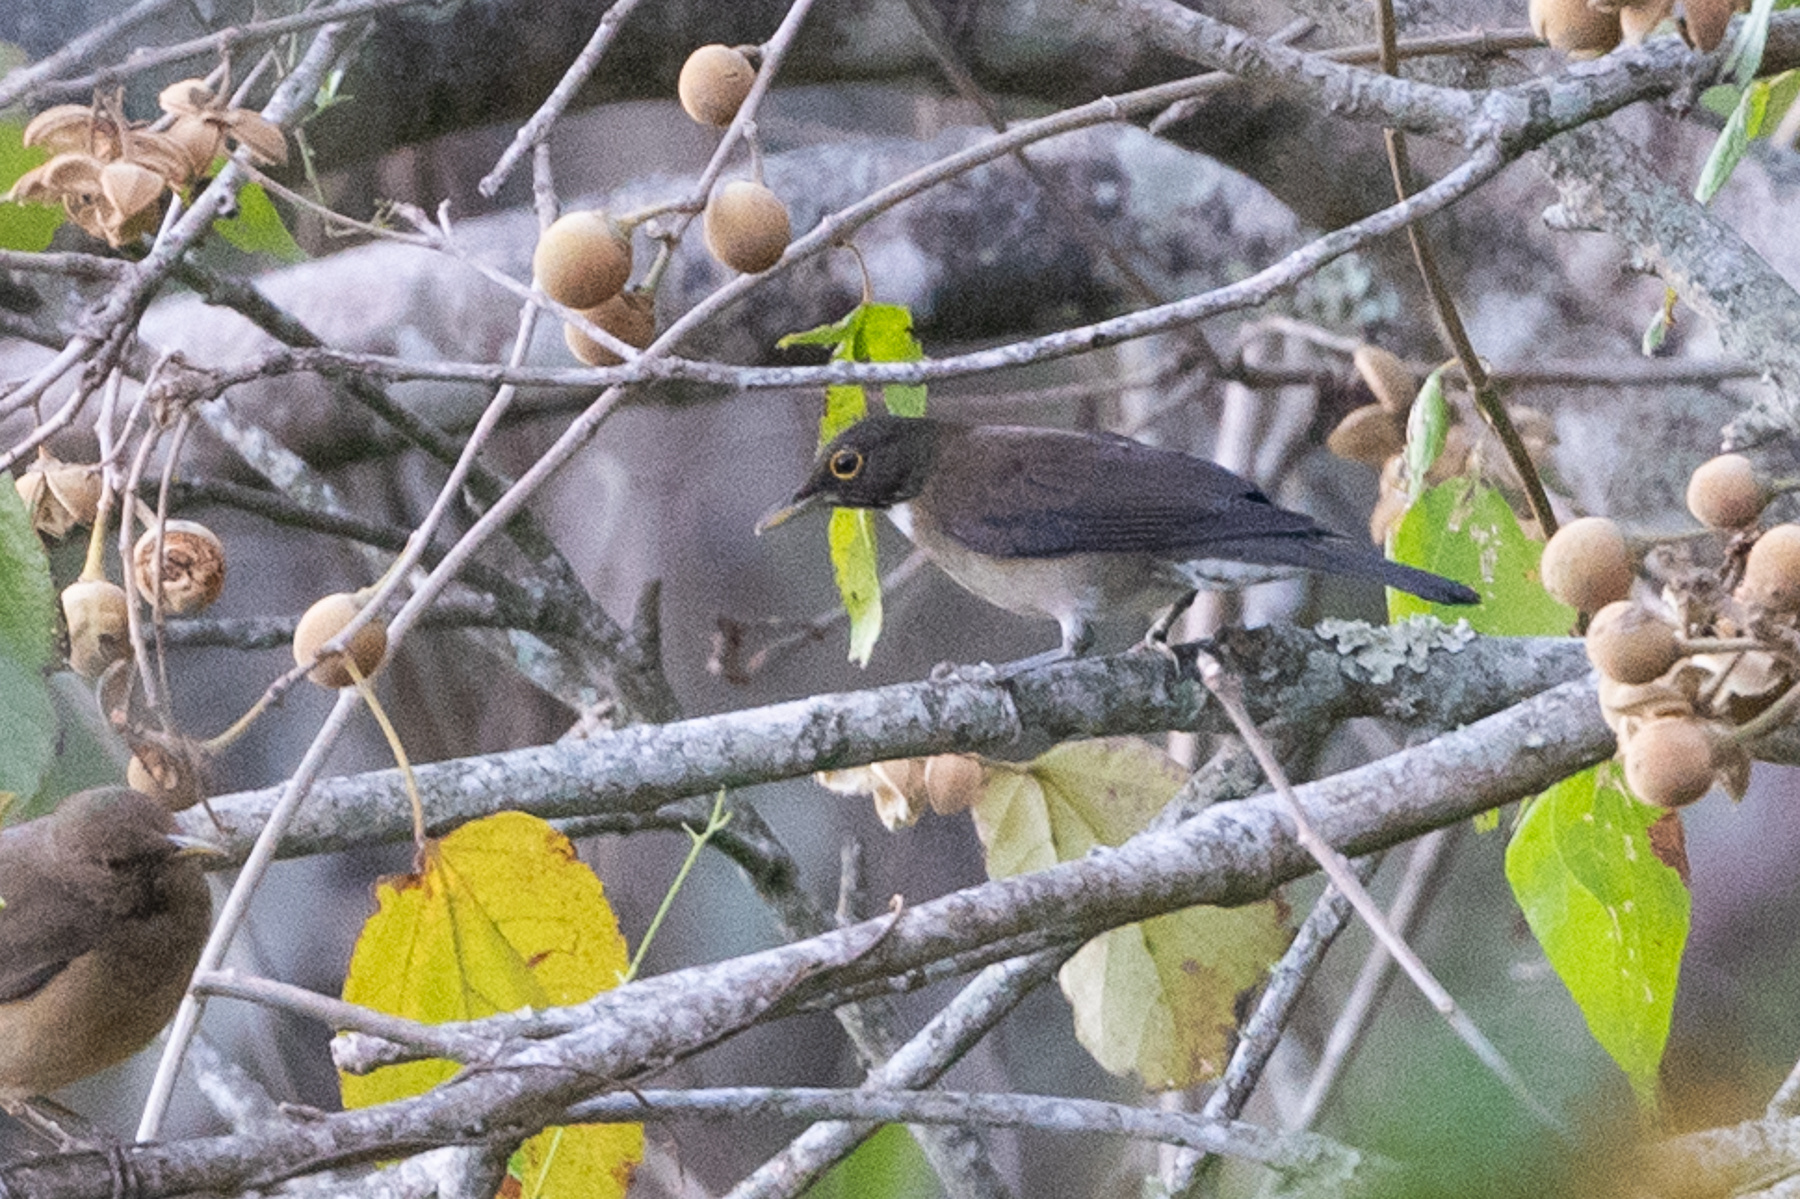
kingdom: Animalia
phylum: Chordata
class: Aves
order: Passeriformes
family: Turdidae
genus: Turdus
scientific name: Turdus assimilis
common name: White-throated thrush
